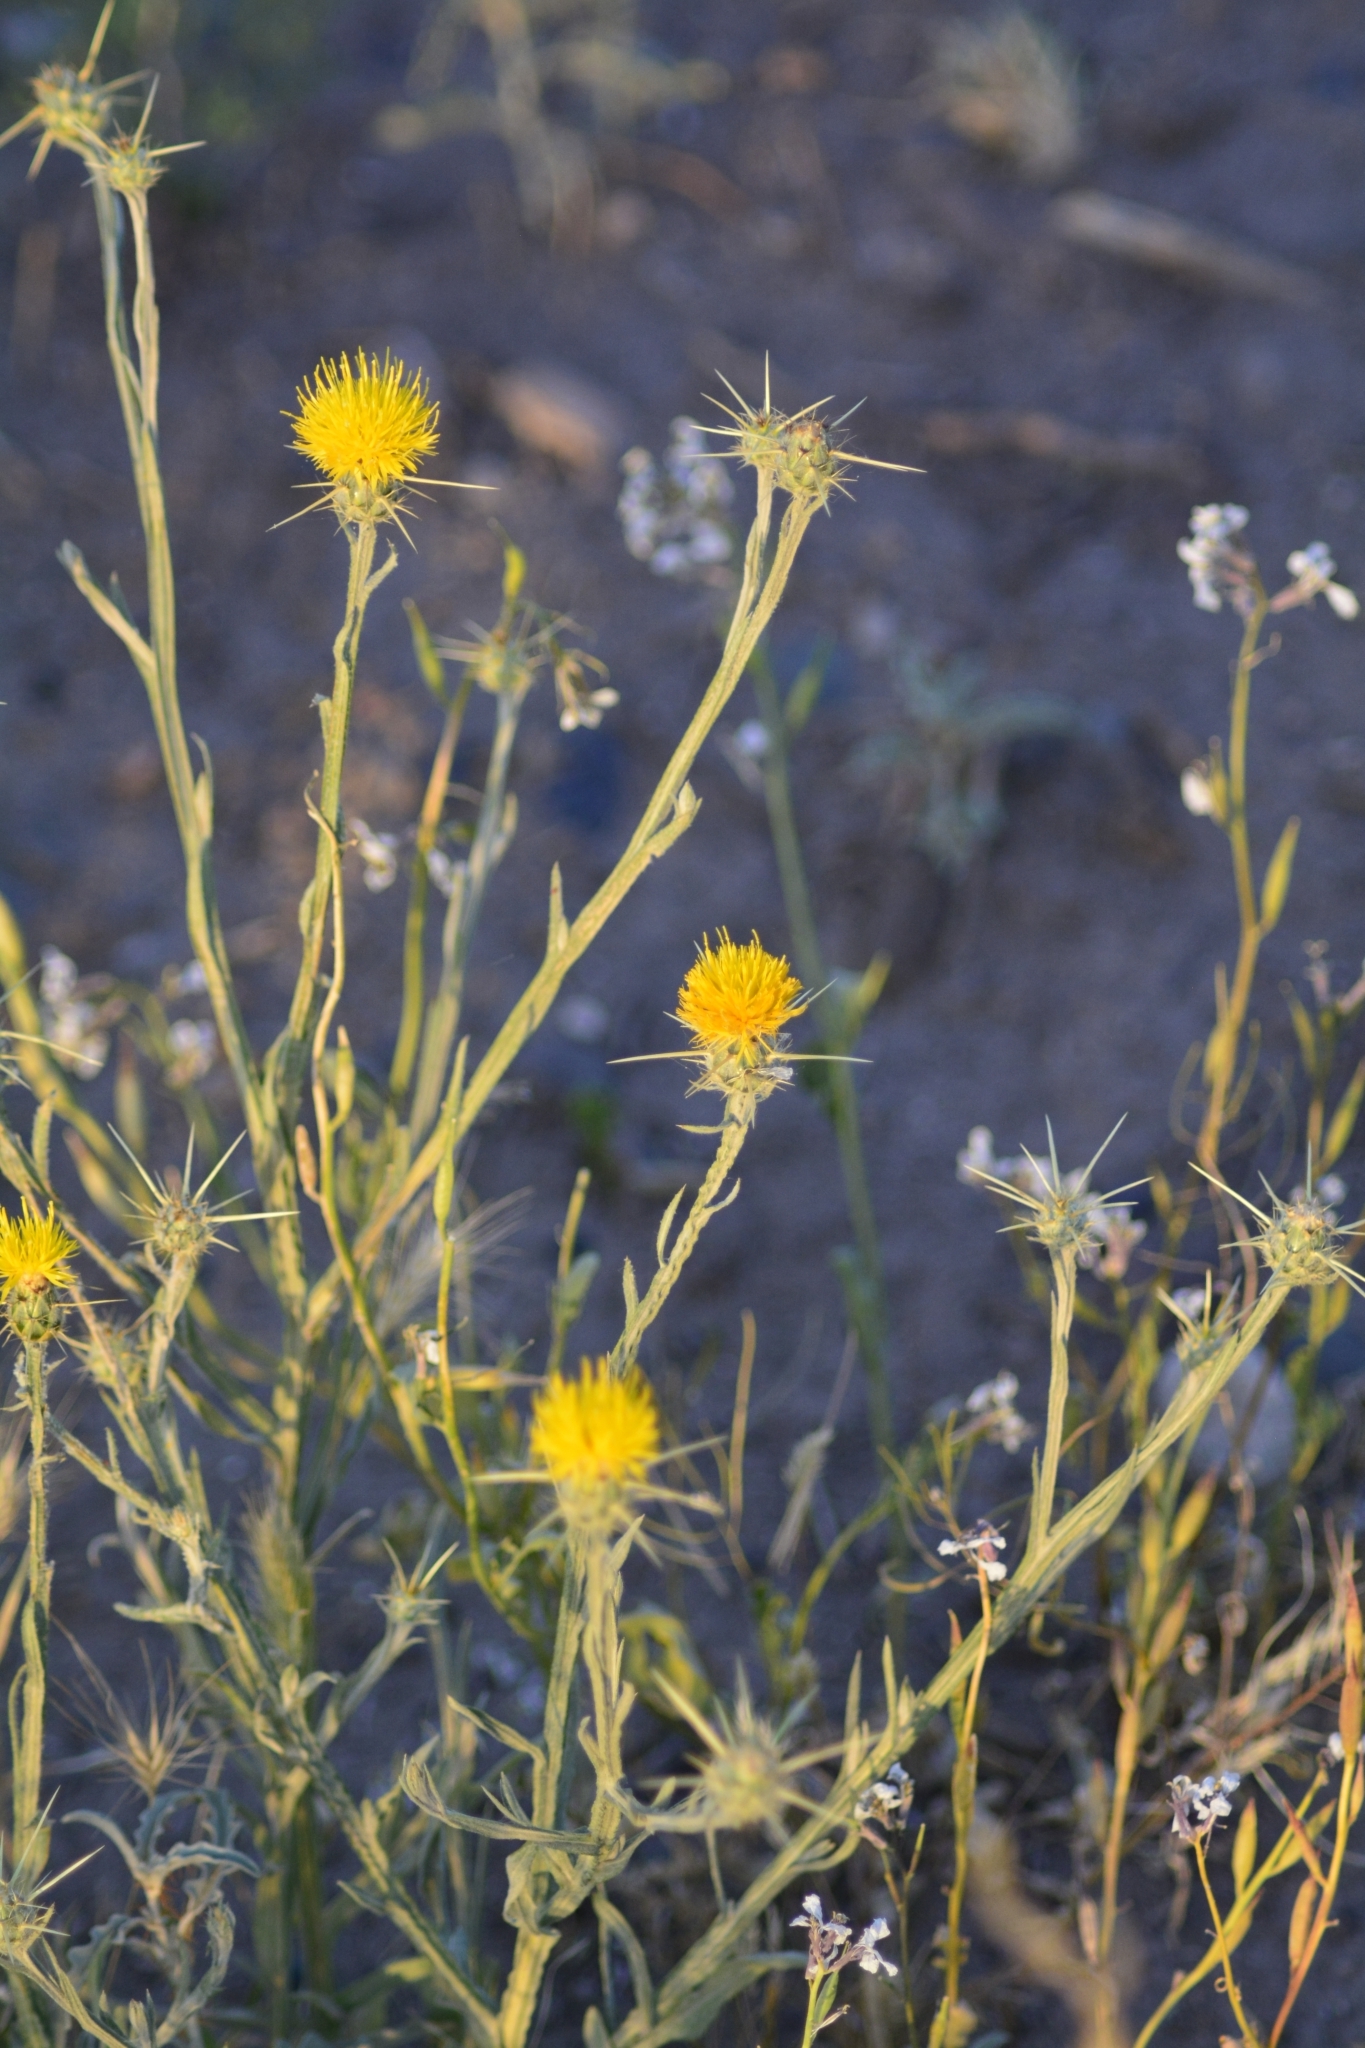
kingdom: Plantae
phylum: Tracheophyta
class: Magnoliopsida
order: Asterales
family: Asteraceae
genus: Centaurea
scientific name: Centaurea solstitialis
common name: Yellow star-thistle
